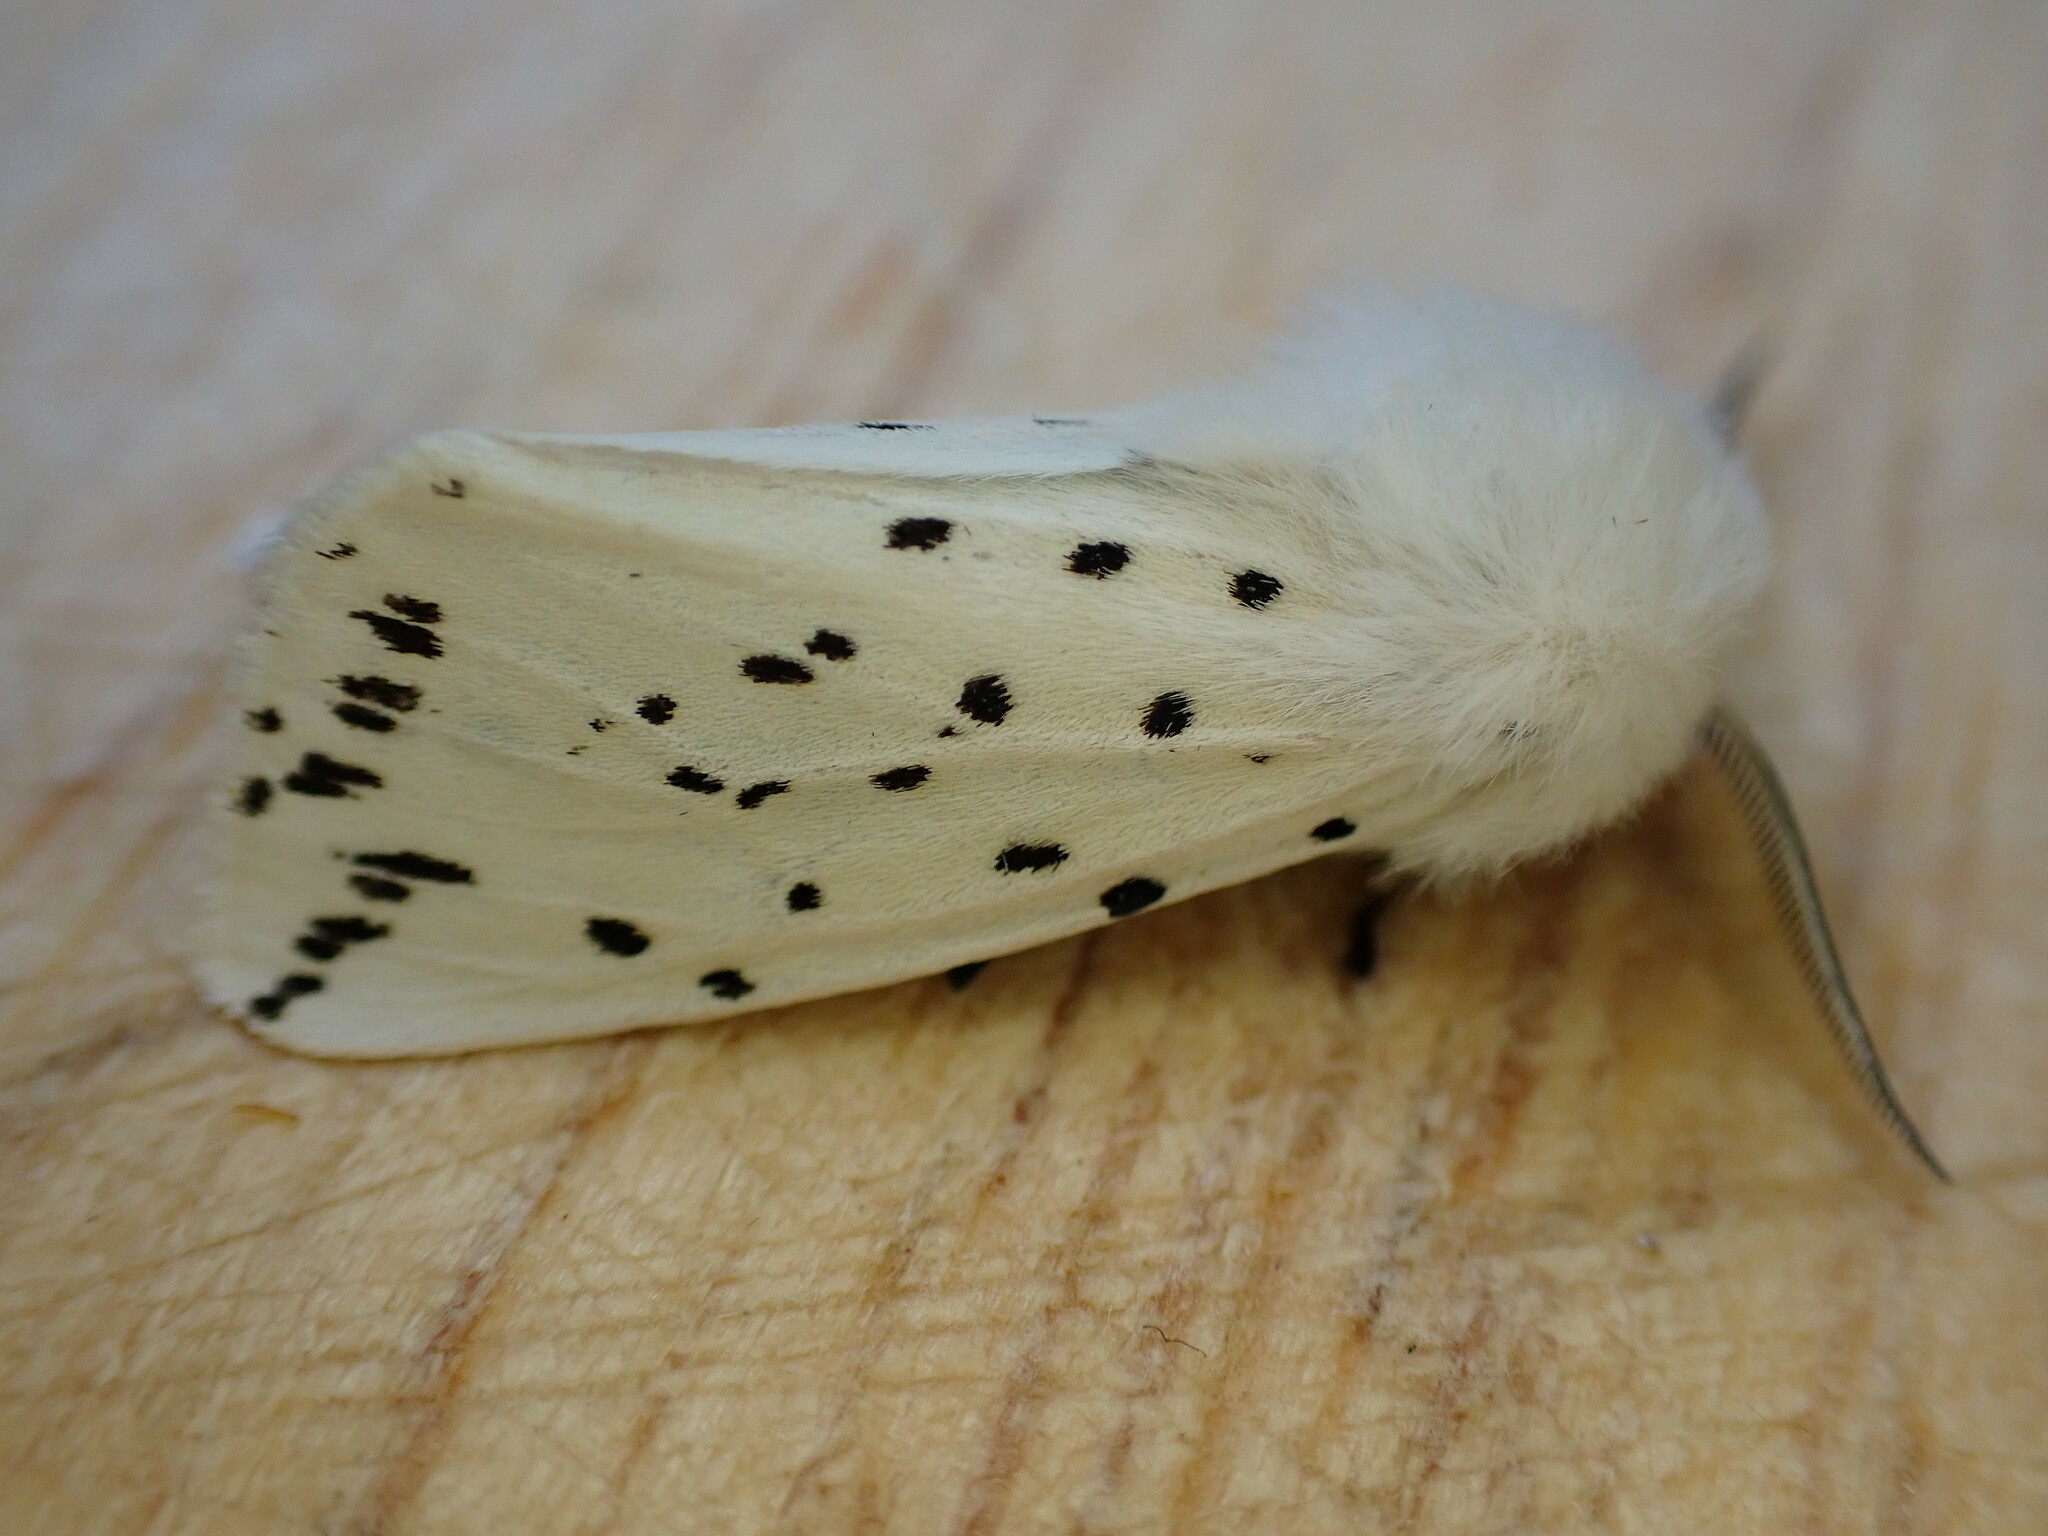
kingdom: Animalia
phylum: Arthropoda
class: Insecta
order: Lepidoptera
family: Erebidae
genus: Spilosoma
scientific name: Spilosoma lubricipeda
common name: White ermine
